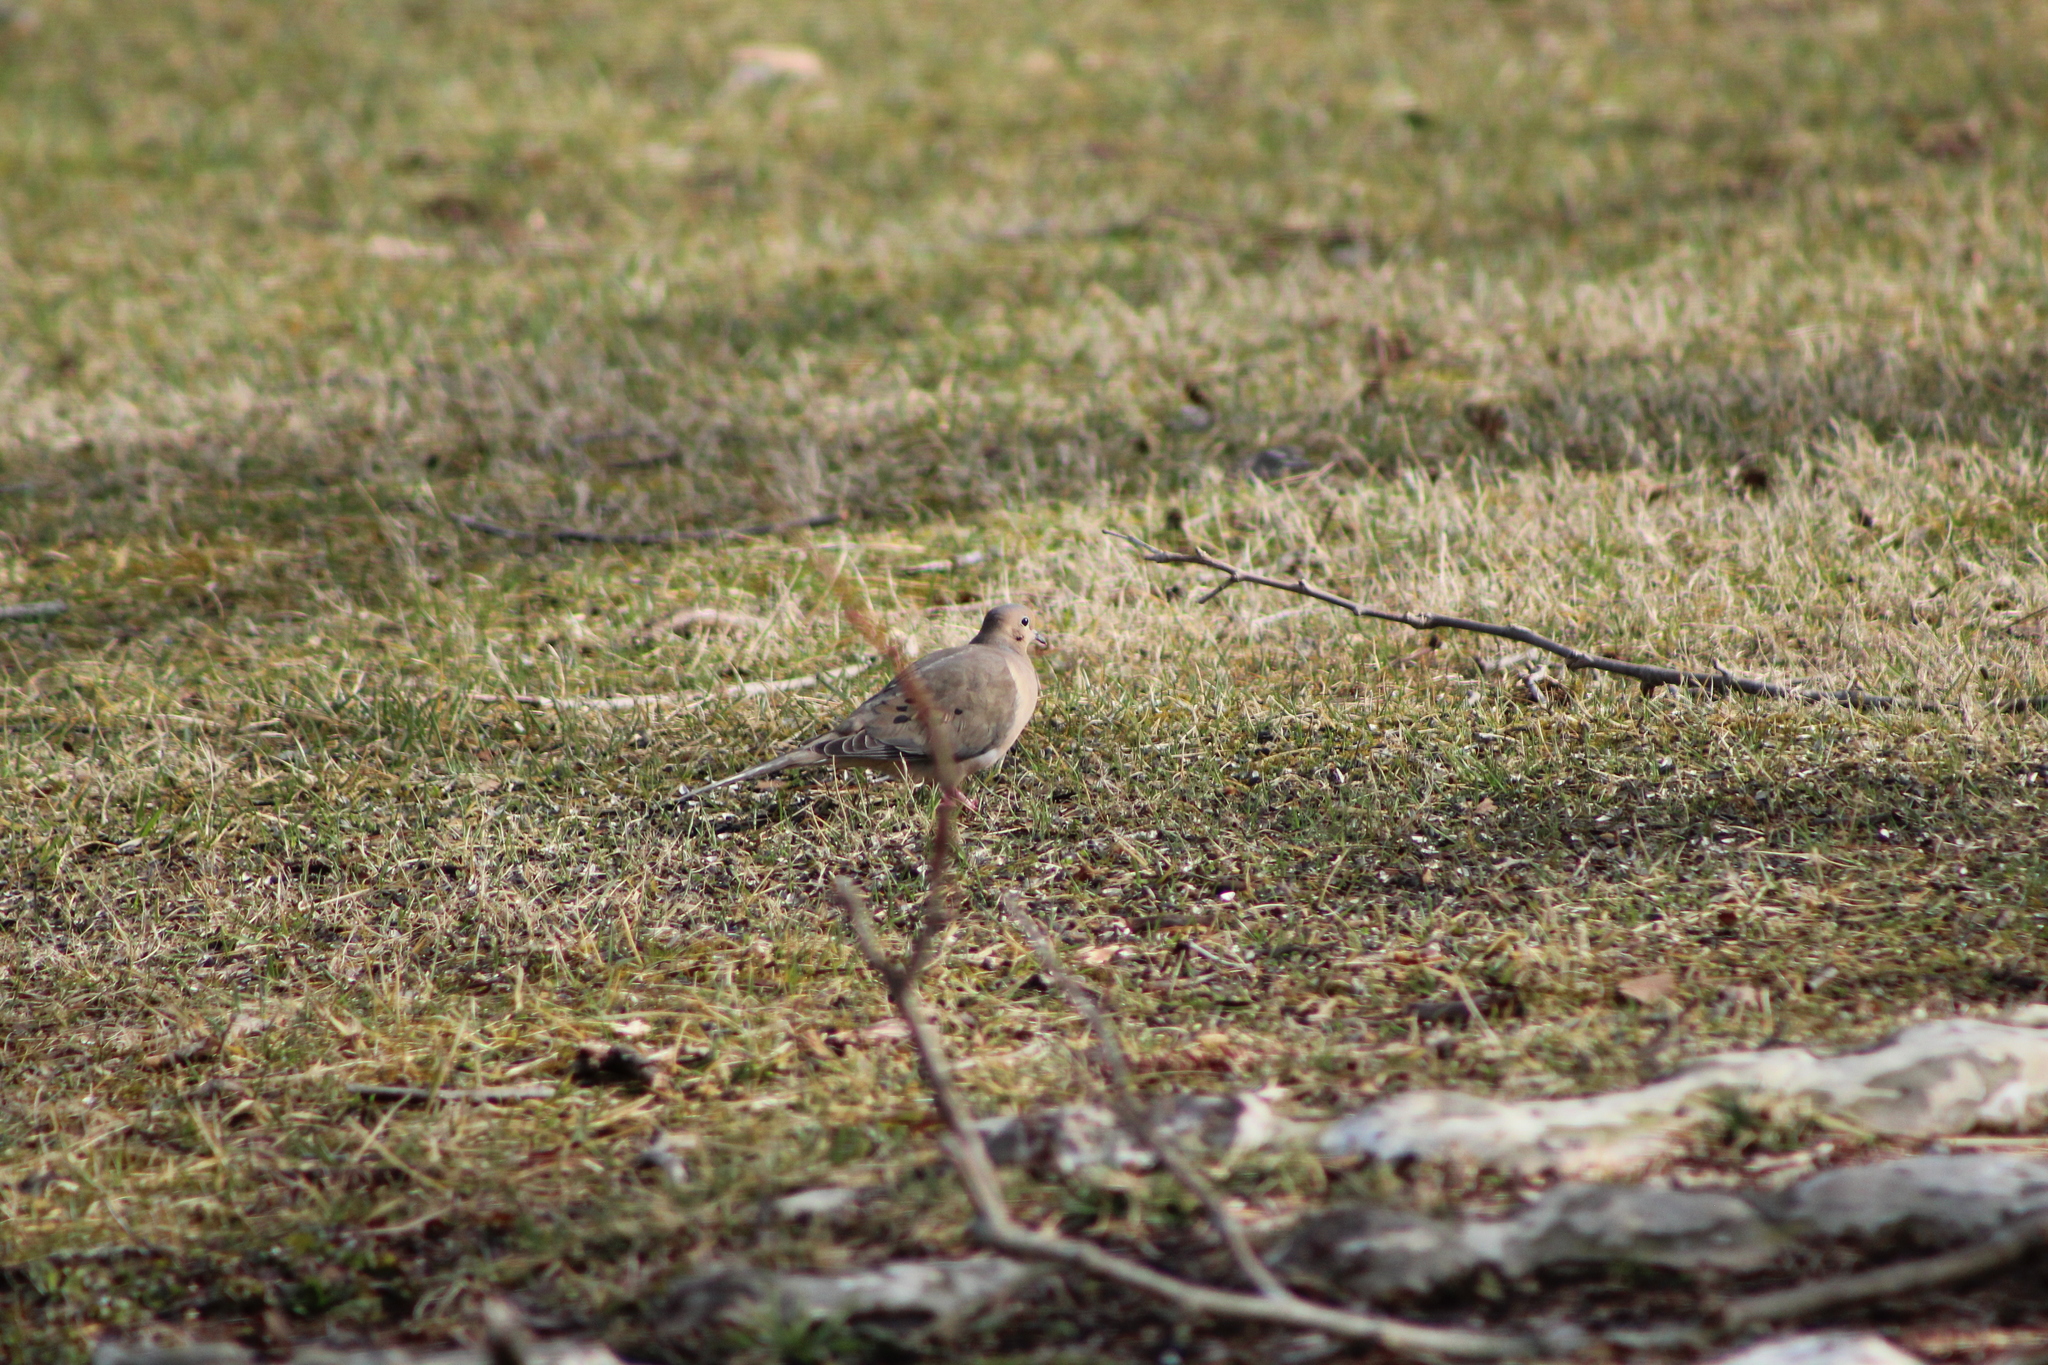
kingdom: Animalia
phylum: Chordata
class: Aves
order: Columbiformes
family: Columbidae
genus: Zenaida
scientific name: Zenaida macroura
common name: Mourning dove
